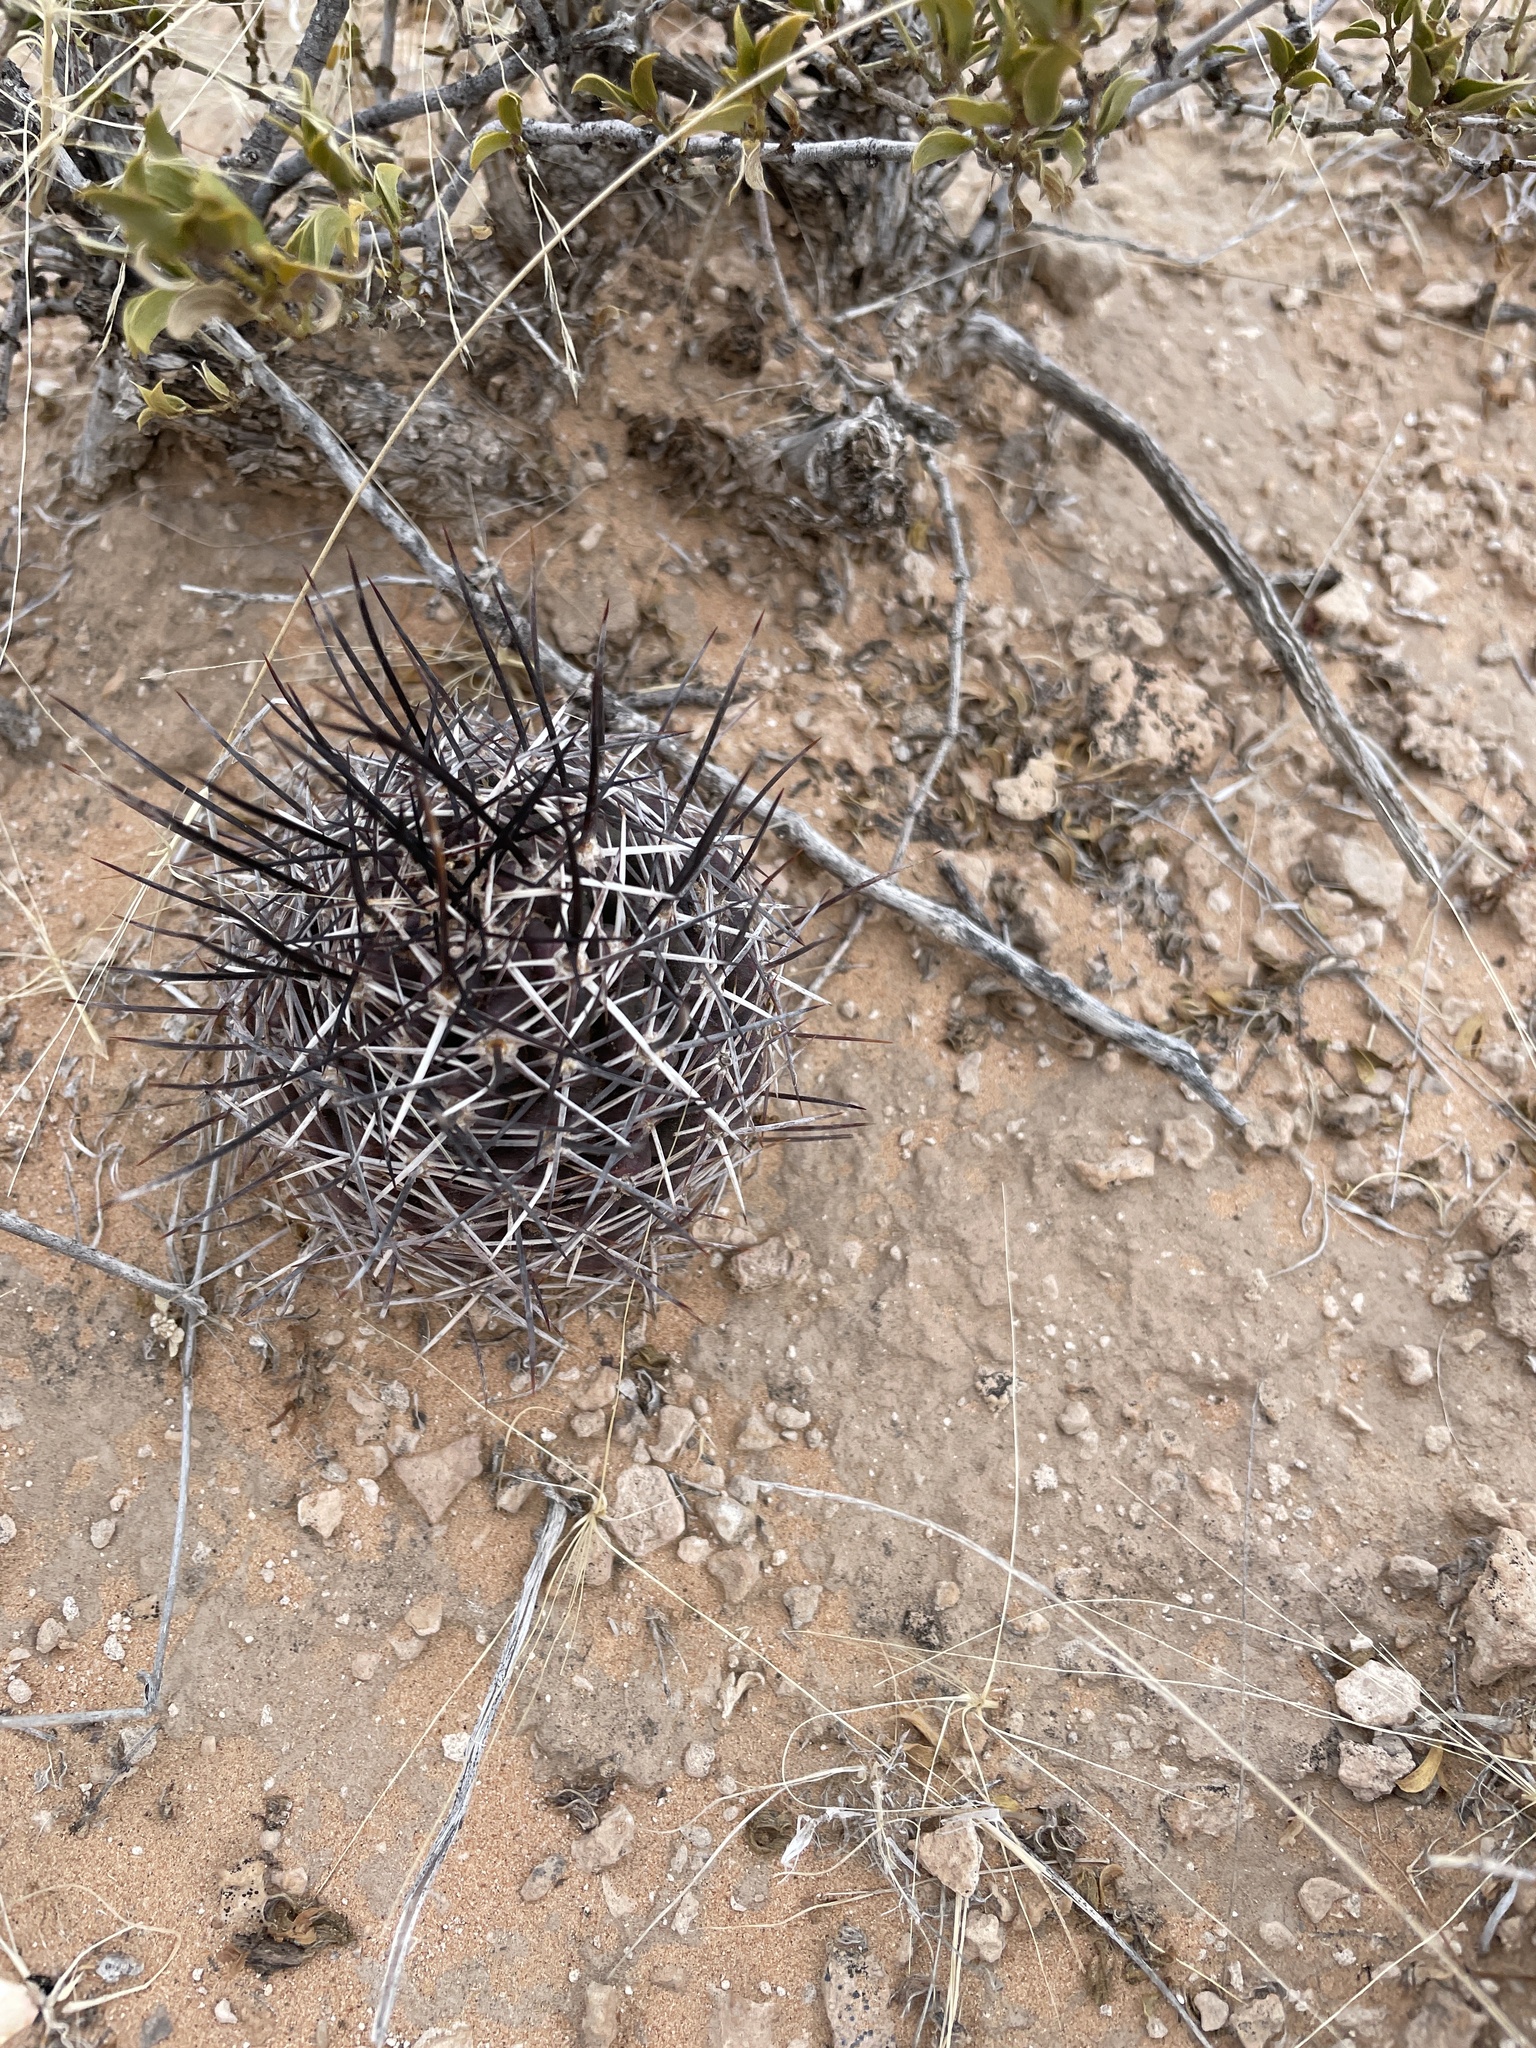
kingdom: Plantae
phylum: Tracheophyta
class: Magnoliopsida
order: Caryophyllales
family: Cactaceae
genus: Echinocereus
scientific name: Echinocereus fendleri
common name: Fendler's hedgehog cactus
